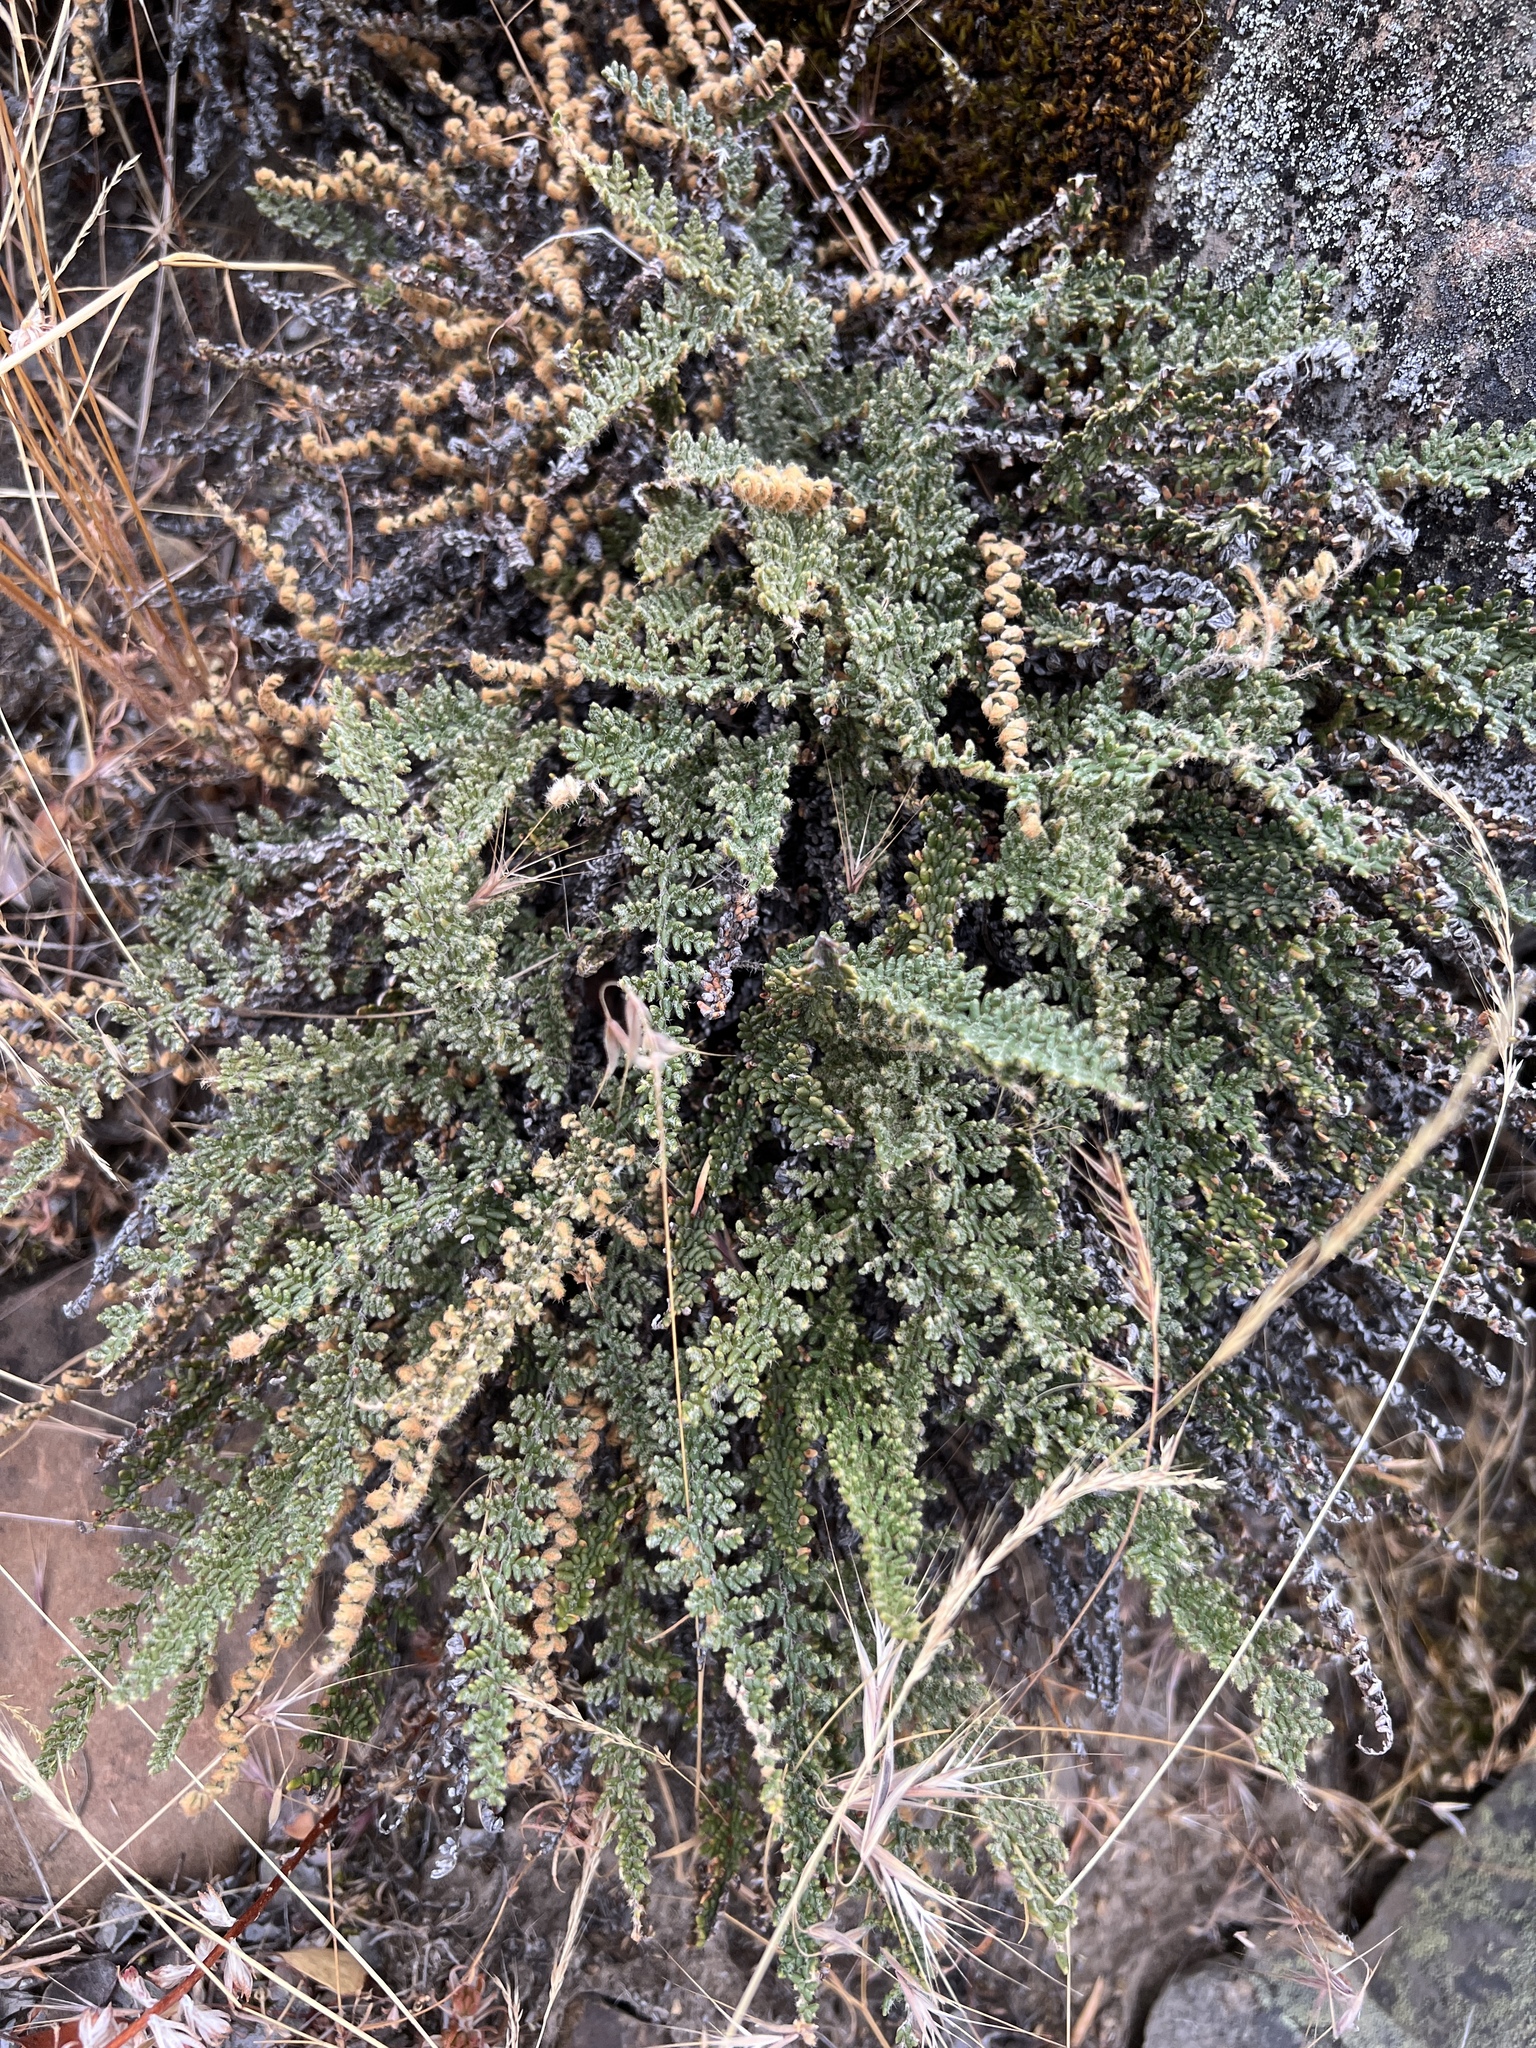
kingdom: Plantae
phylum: Tracheophyta
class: Polypodiopsida
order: Polypodiales
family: Pteridaceae
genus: Myriopteris
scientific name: Myriopteris gracillima
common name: Lace fern
